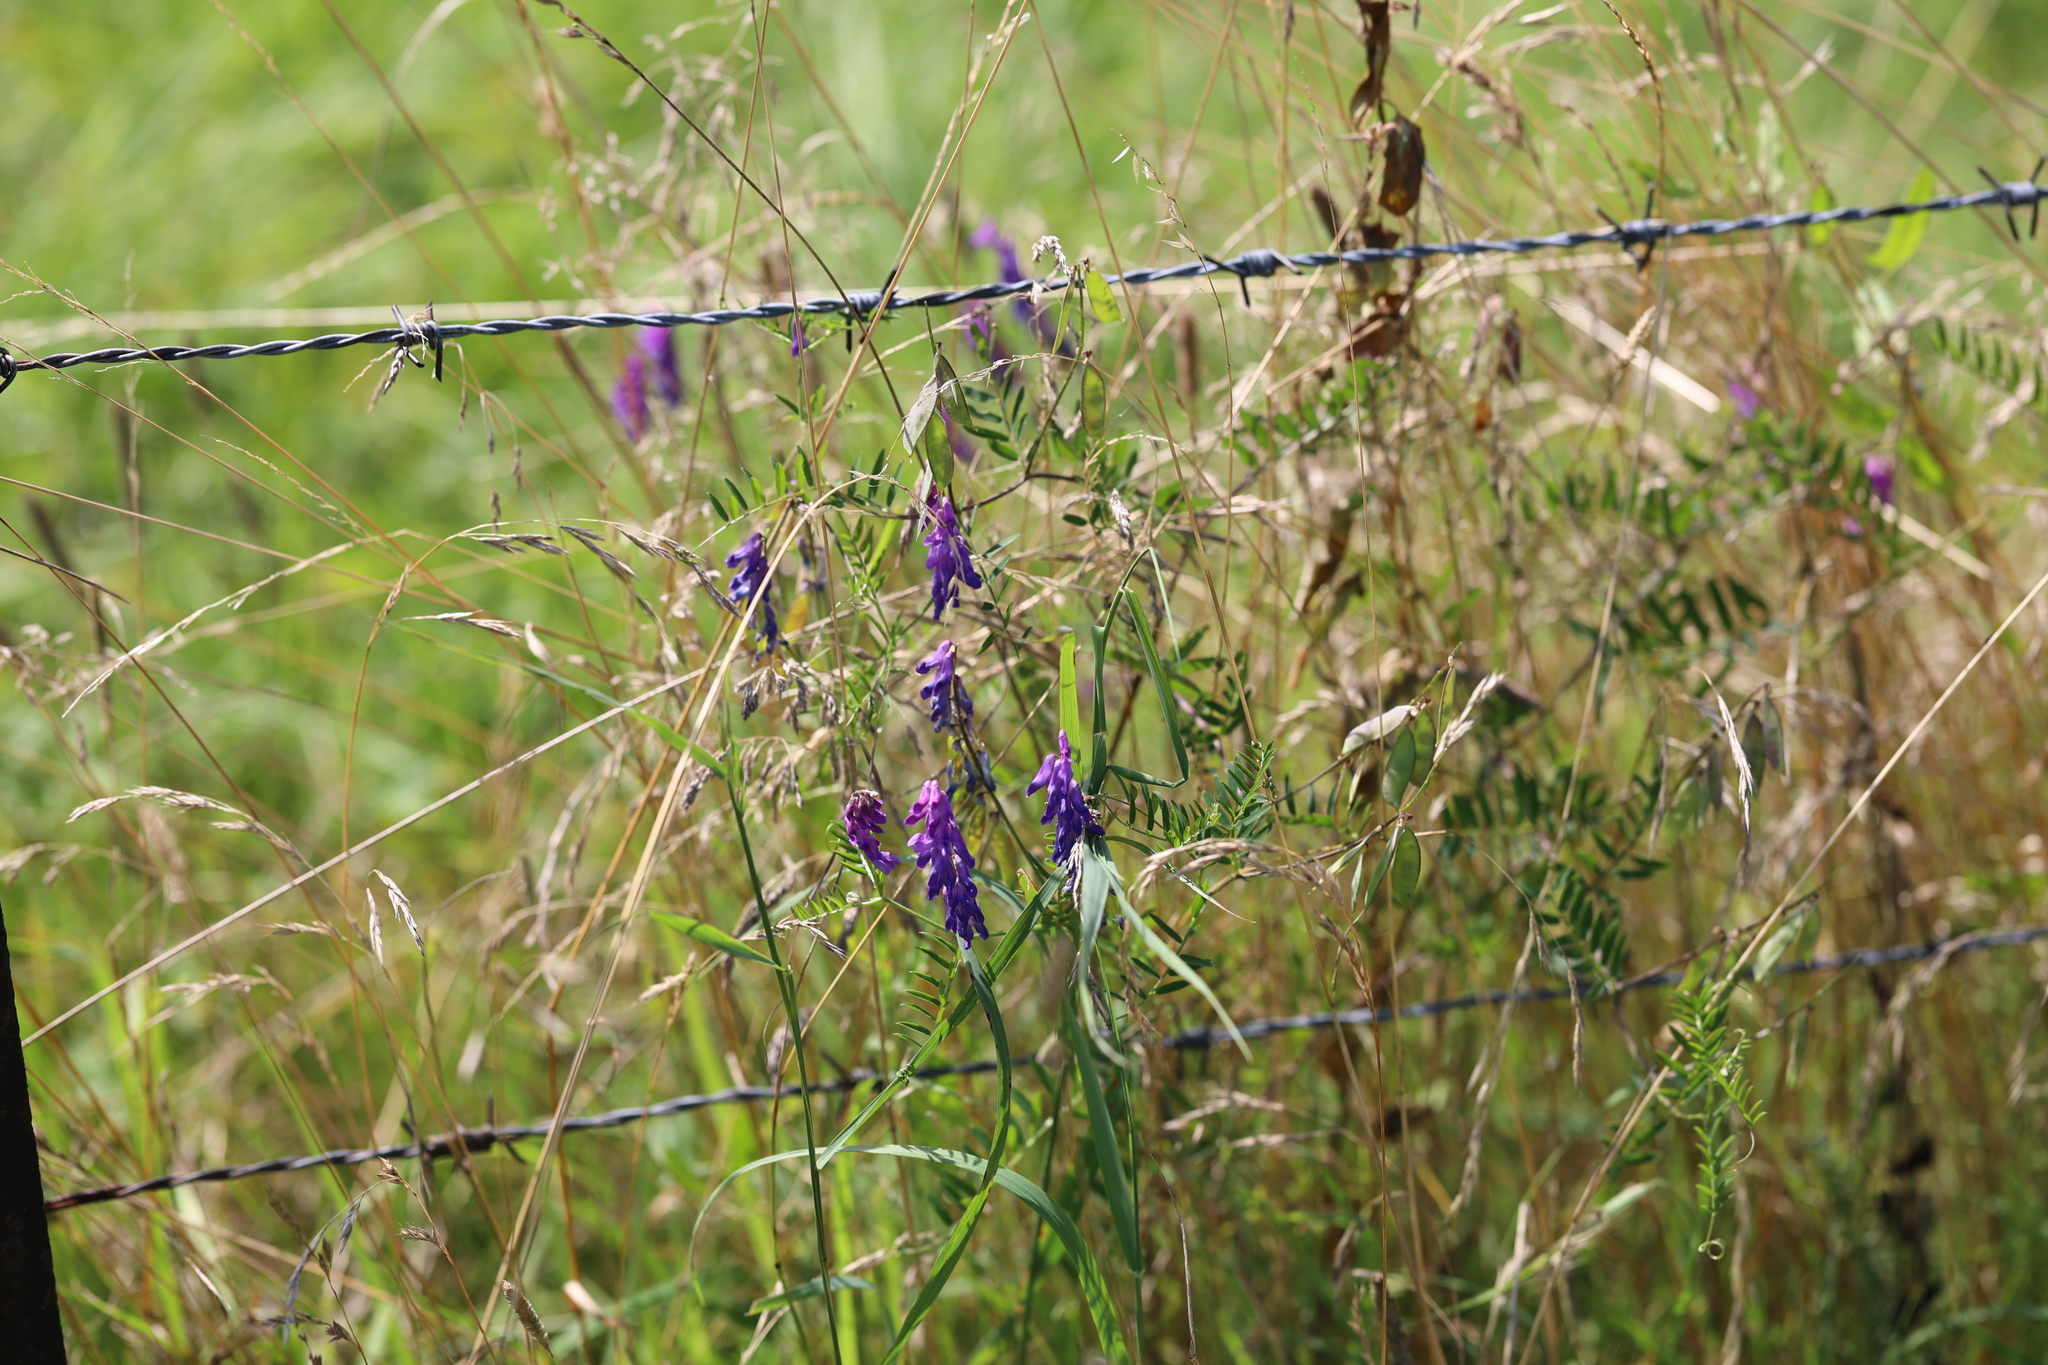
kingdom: Plantae
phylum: Tracheophyta
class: Magnoliopsida
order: Fabales
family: Fabaceae
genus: Vicia
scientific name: Vicia cracca
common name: Bird vetch
